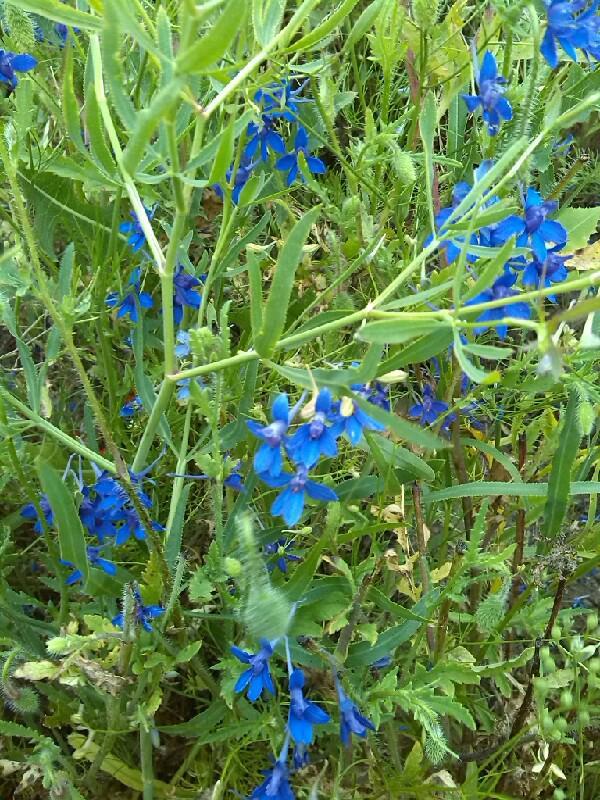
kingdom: Plantae
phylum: Tracheophyta
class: Magnoliopsida
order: Ranunculales
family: Ranunculaceae
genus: Delphinium
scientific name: Delphinium consolida
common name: Branching larkspur
